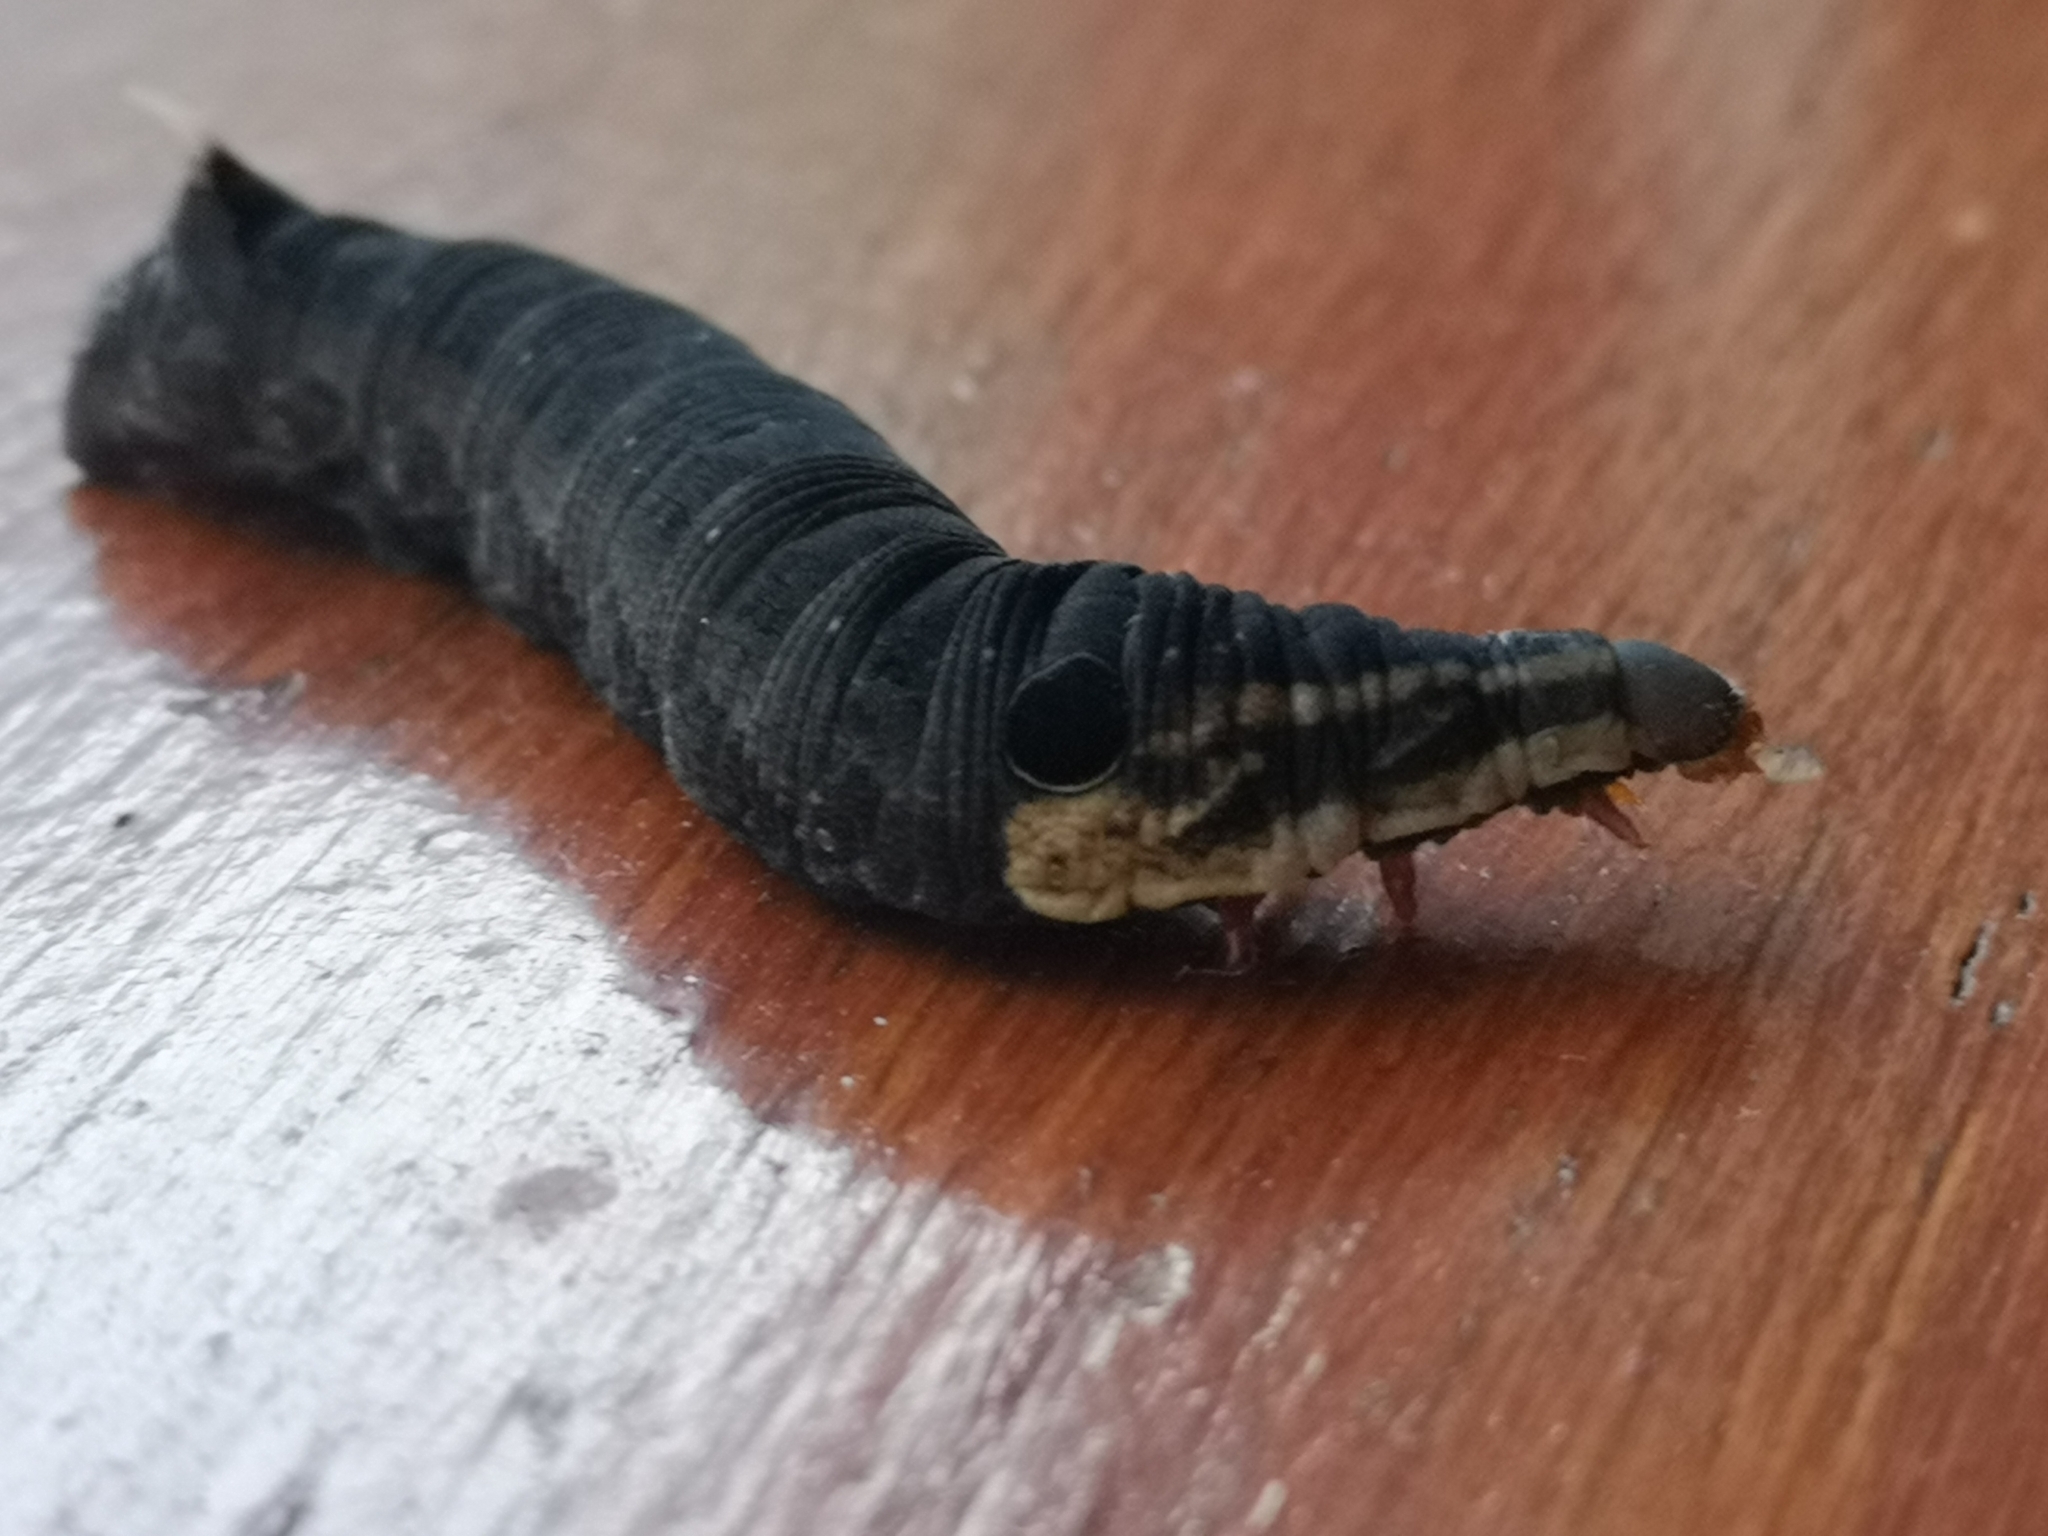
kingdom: Animalia
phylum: Arthropoda
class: Insecta
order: Lepidoptera
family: Sphingidae
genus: Hippotion
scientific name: Hippotion eson
